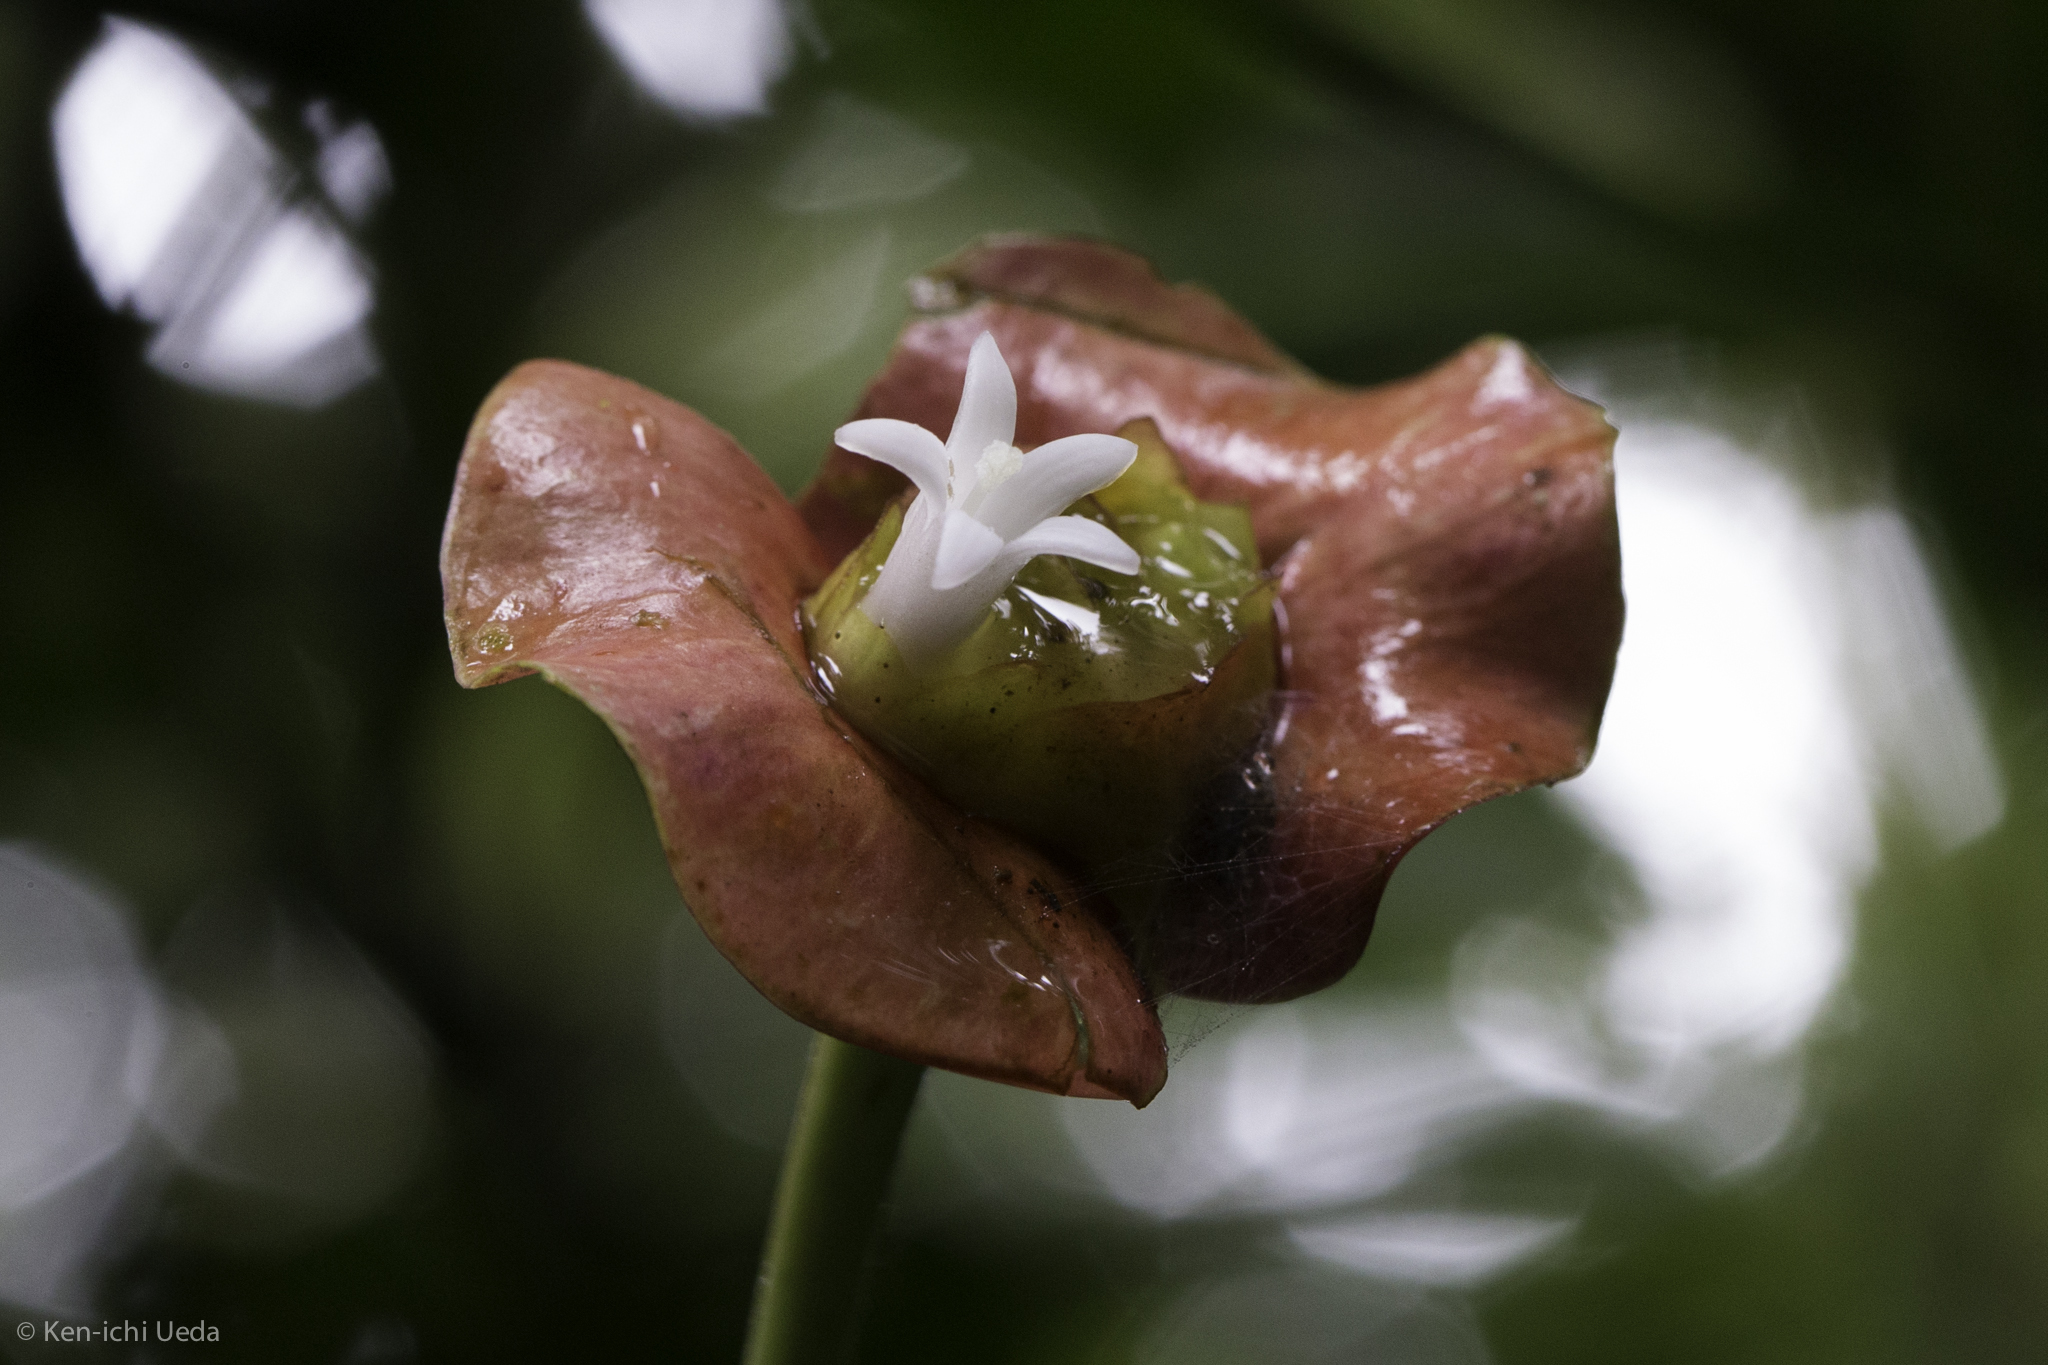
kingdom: Plantae
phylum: Tracheophyta
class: Magnoliopsida
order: Gentianales
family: Rubiaceae
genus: Palicourea
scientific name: Palicourea elata
